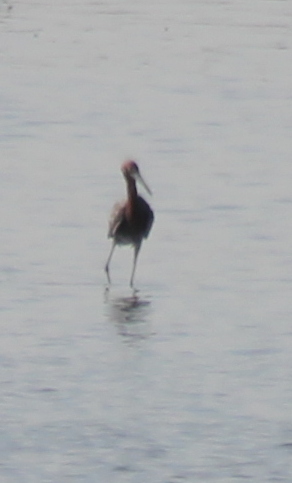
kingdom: Animalia
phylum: Chordata
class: Aves
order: Pelecaniformes
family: Ardeidae
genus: Egretta
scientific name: Egretta rufescens
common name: Reddish egret
